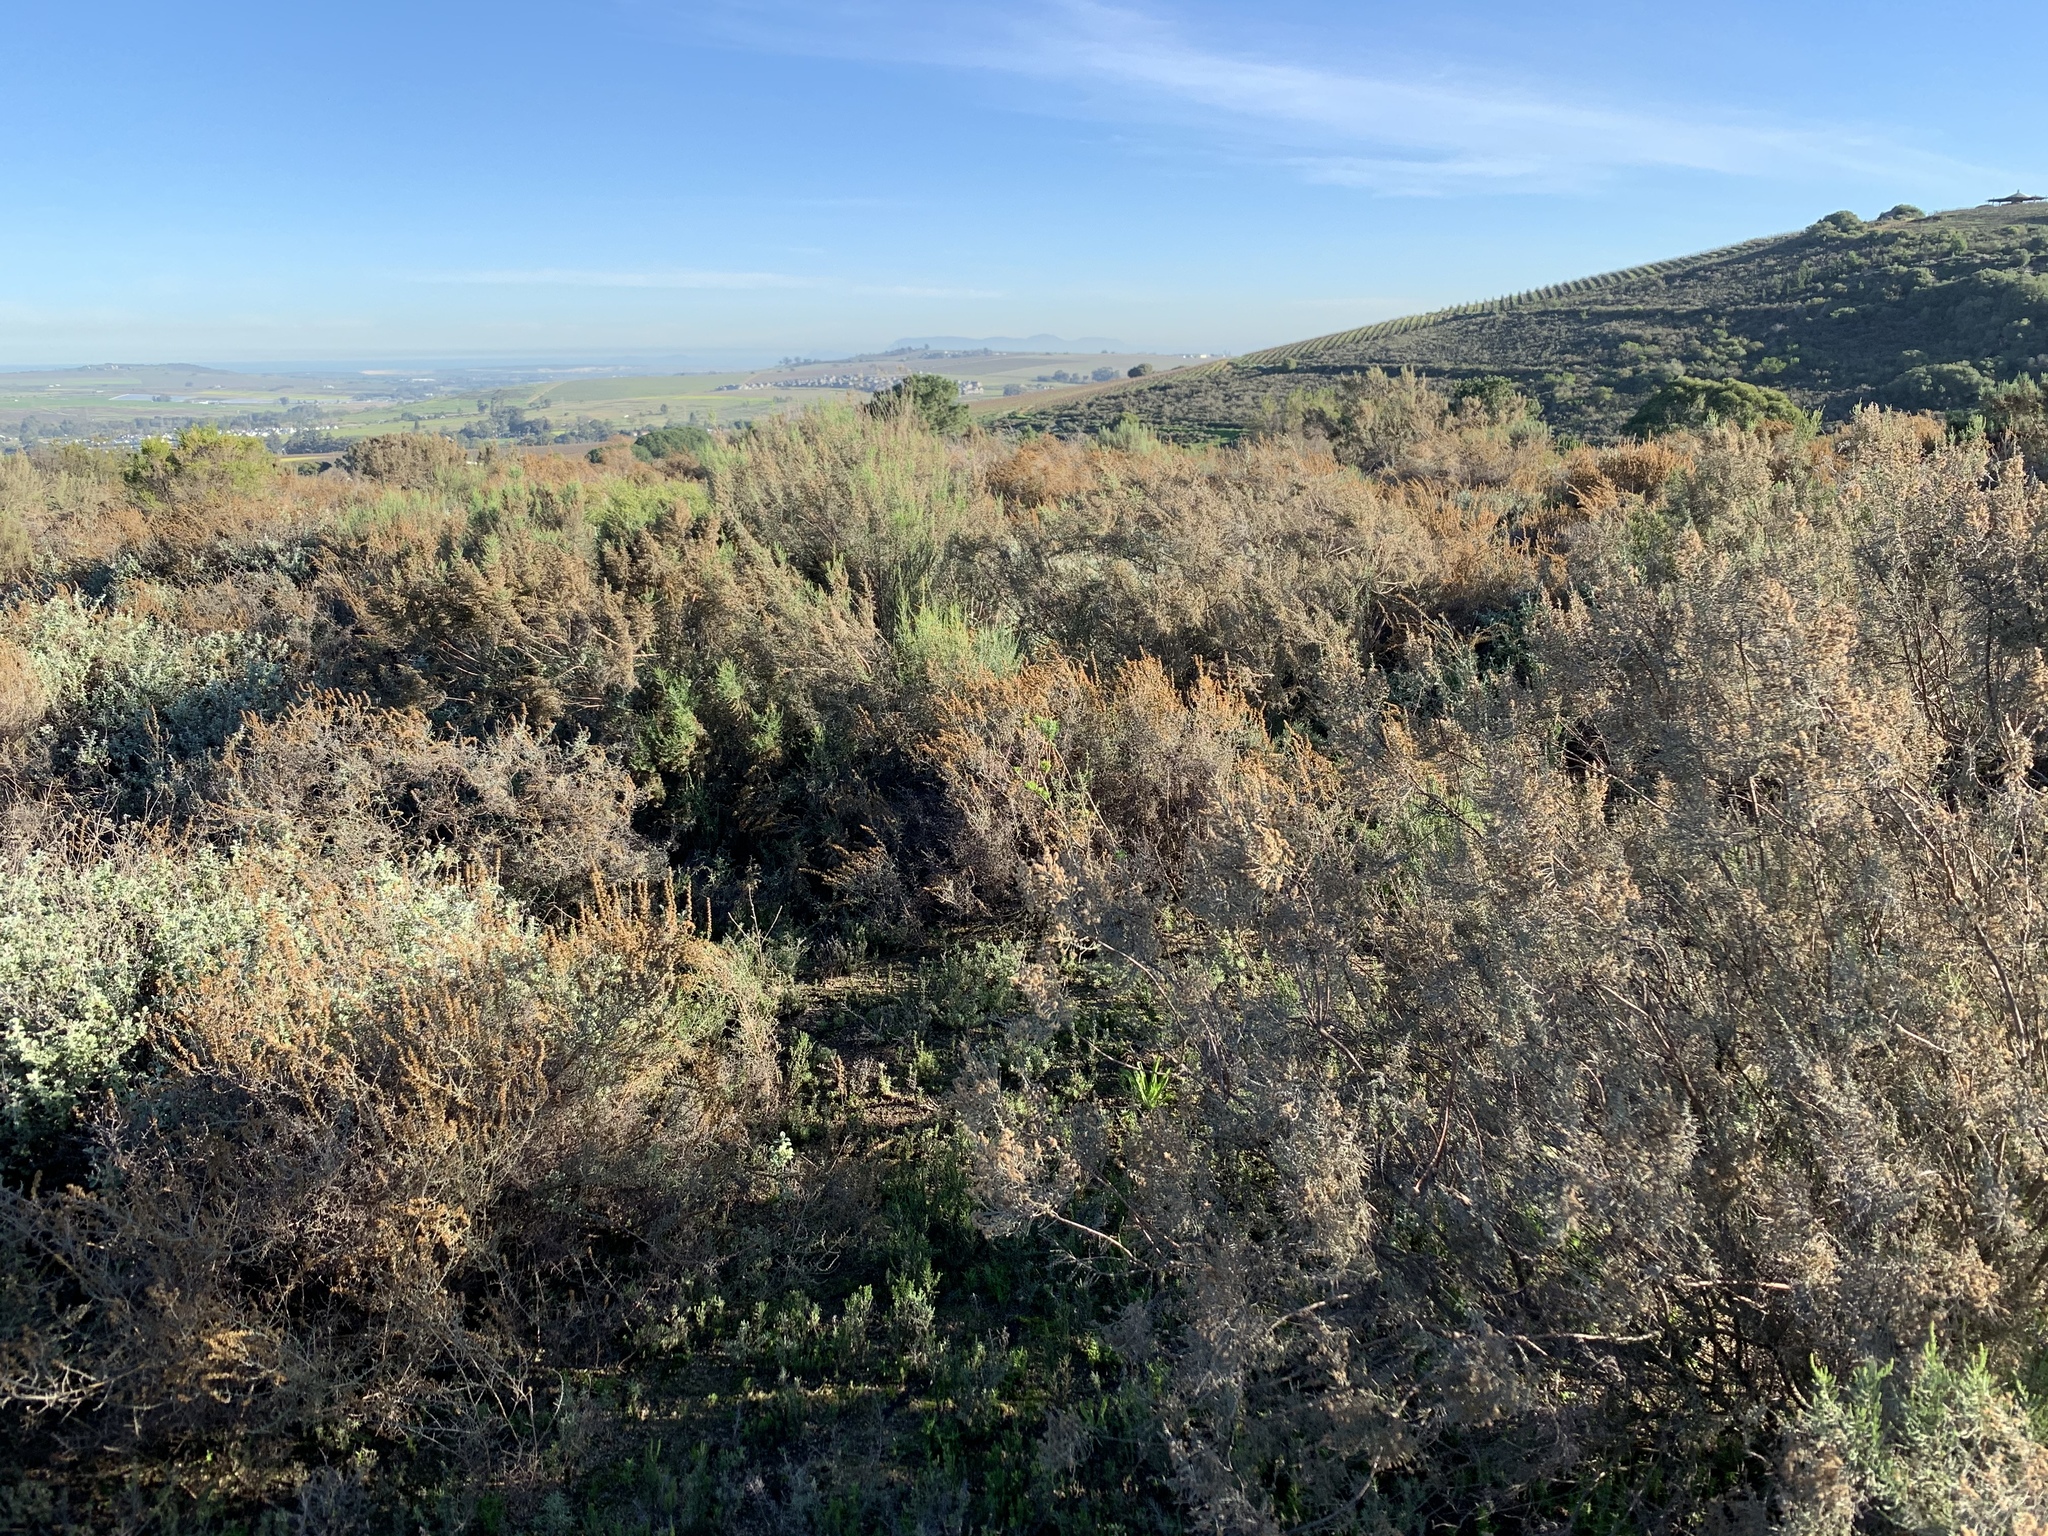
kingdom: Plantae
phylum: Tracheophyta
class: Magnoliopsida
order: Asterales
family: Asteraceae
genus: Dicerothamnus
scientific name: Dicerothamnus rhinocerotis
